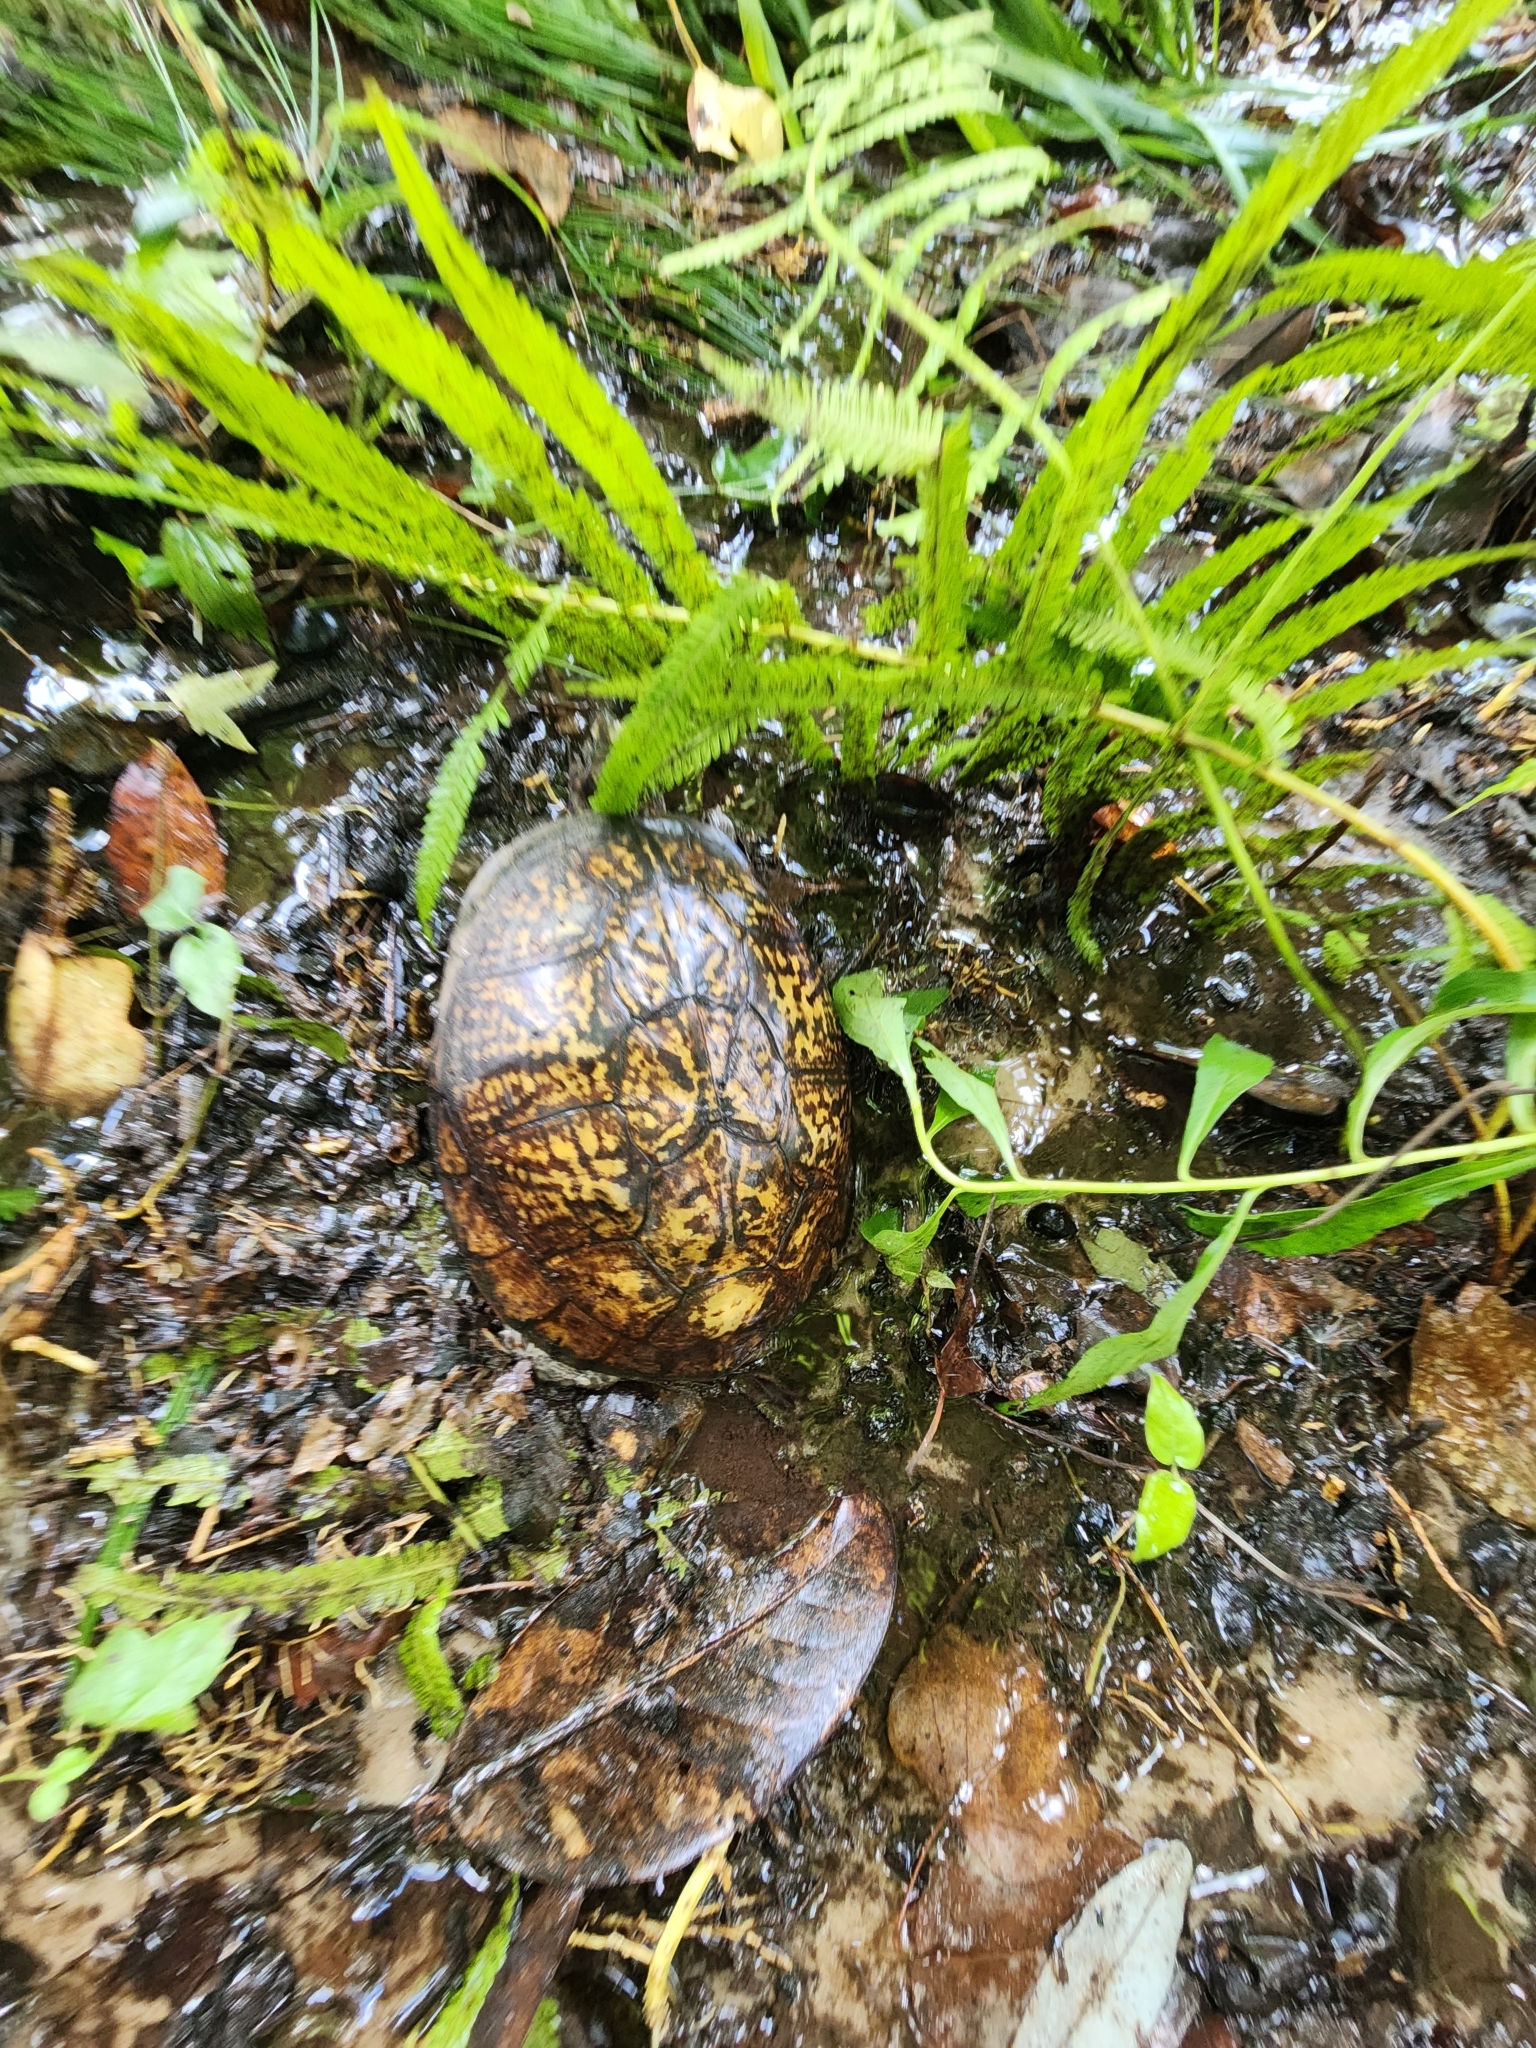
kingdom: Animalia
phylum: Chordata
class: Testudines
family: Emydidae
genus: Terrapene
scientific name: Terrapene carolina
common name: Common box turtle
